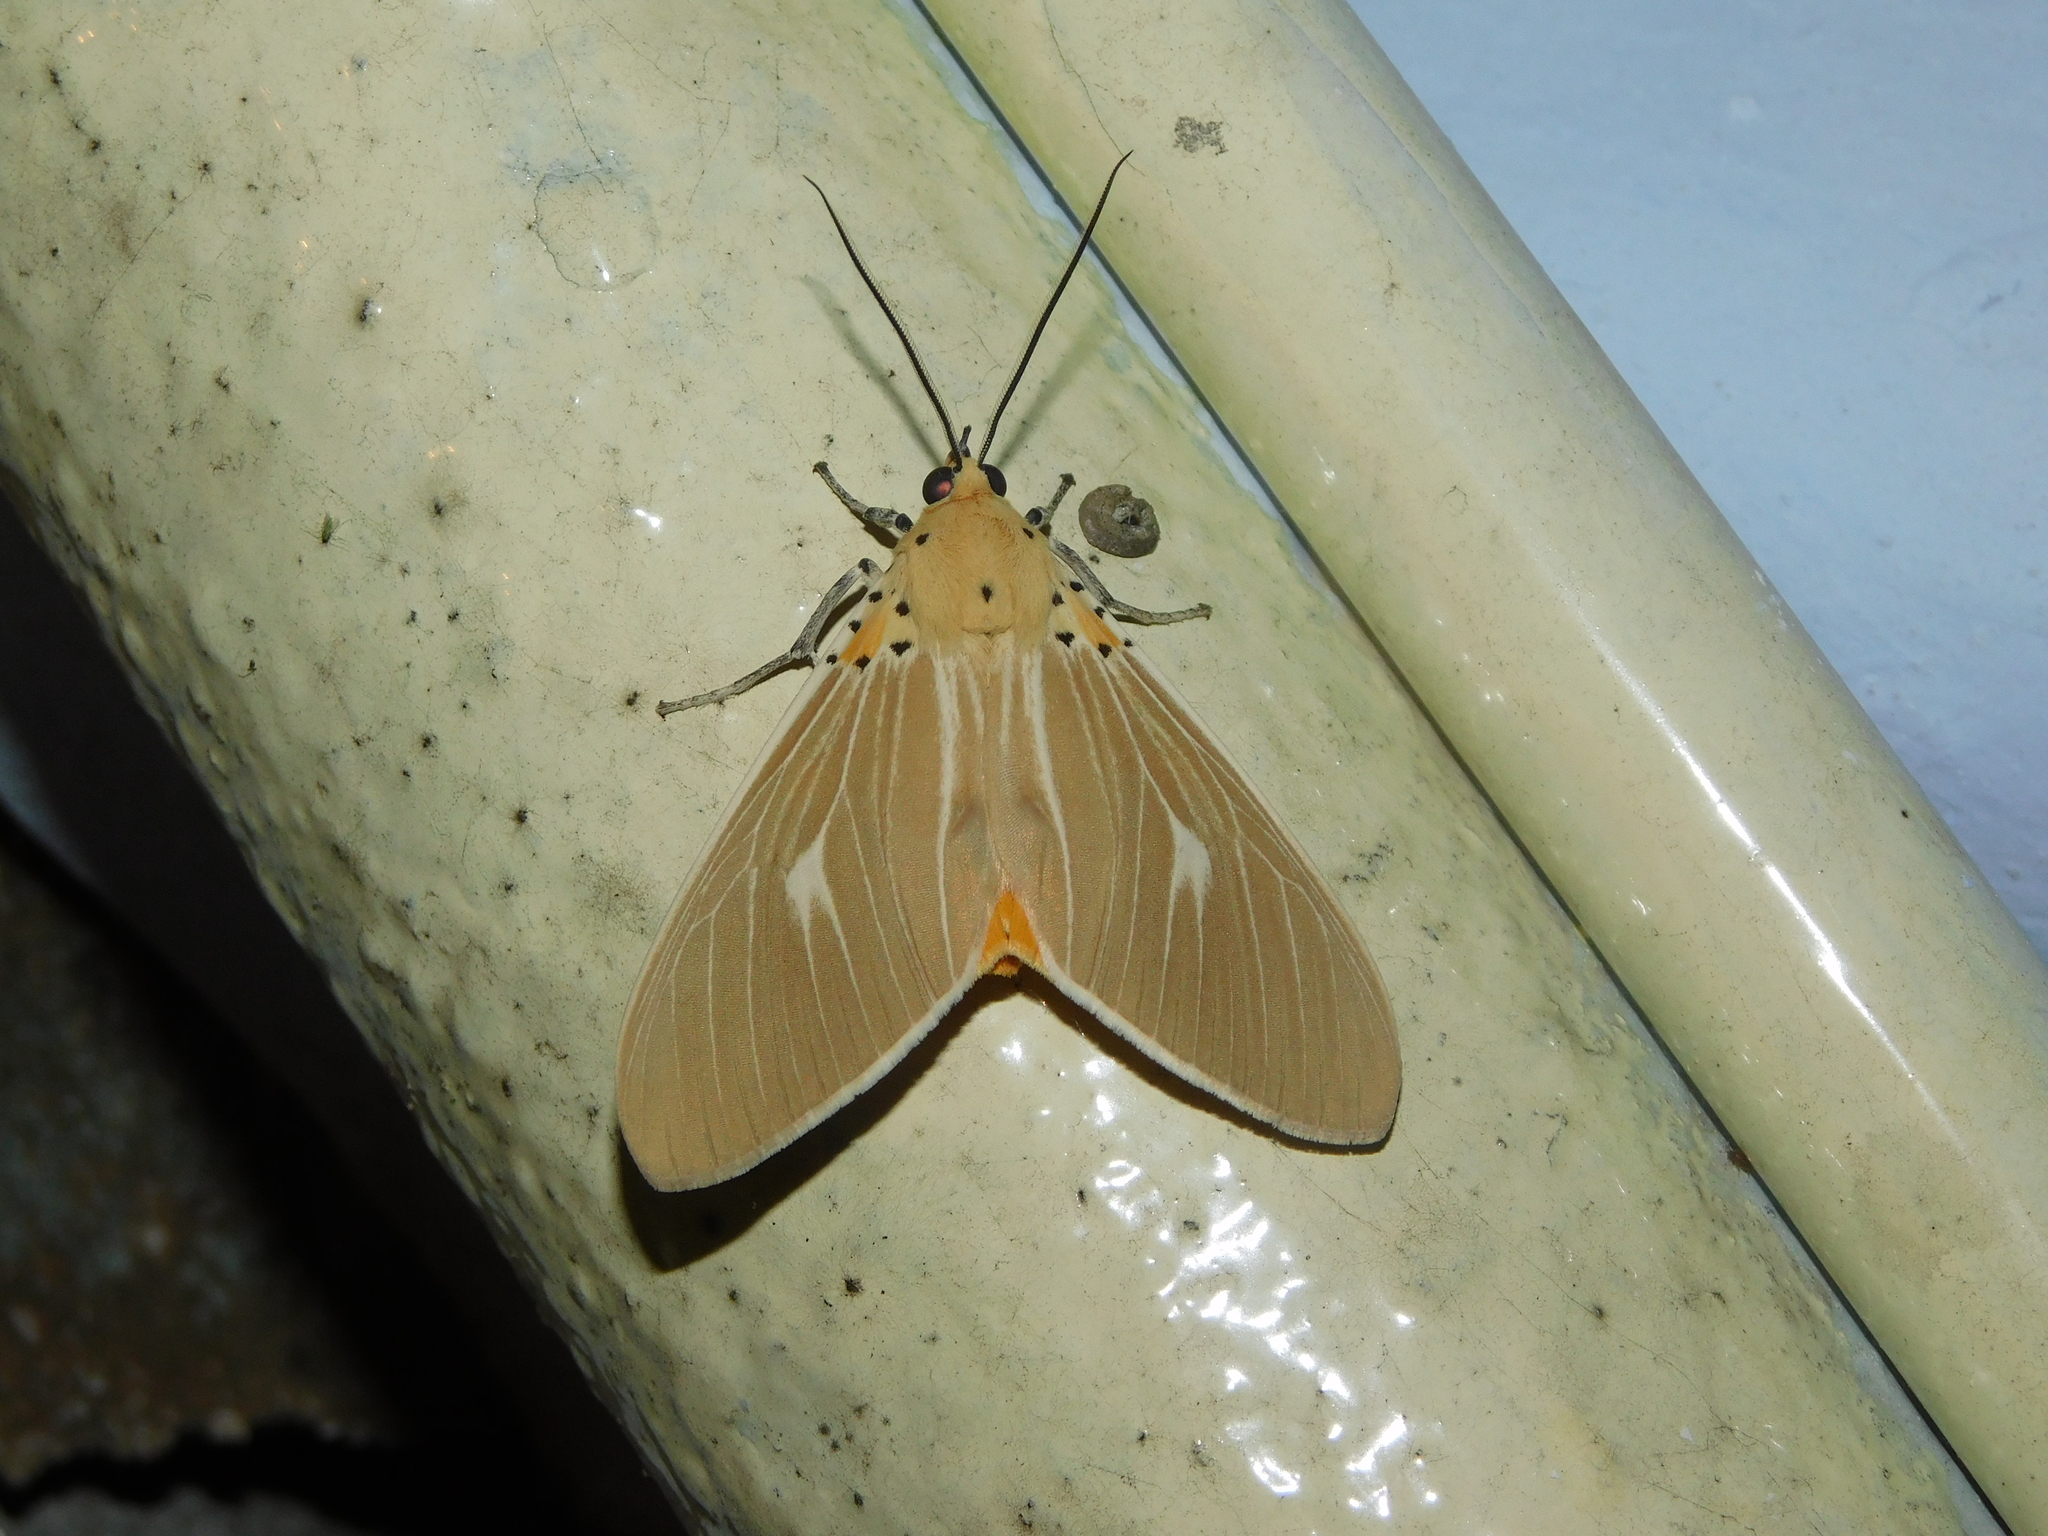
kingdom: Animalia
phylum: Arthropoda
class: Insecta
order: Lepidoptera
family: Erebidae
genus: Asota
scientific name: Asota producta
